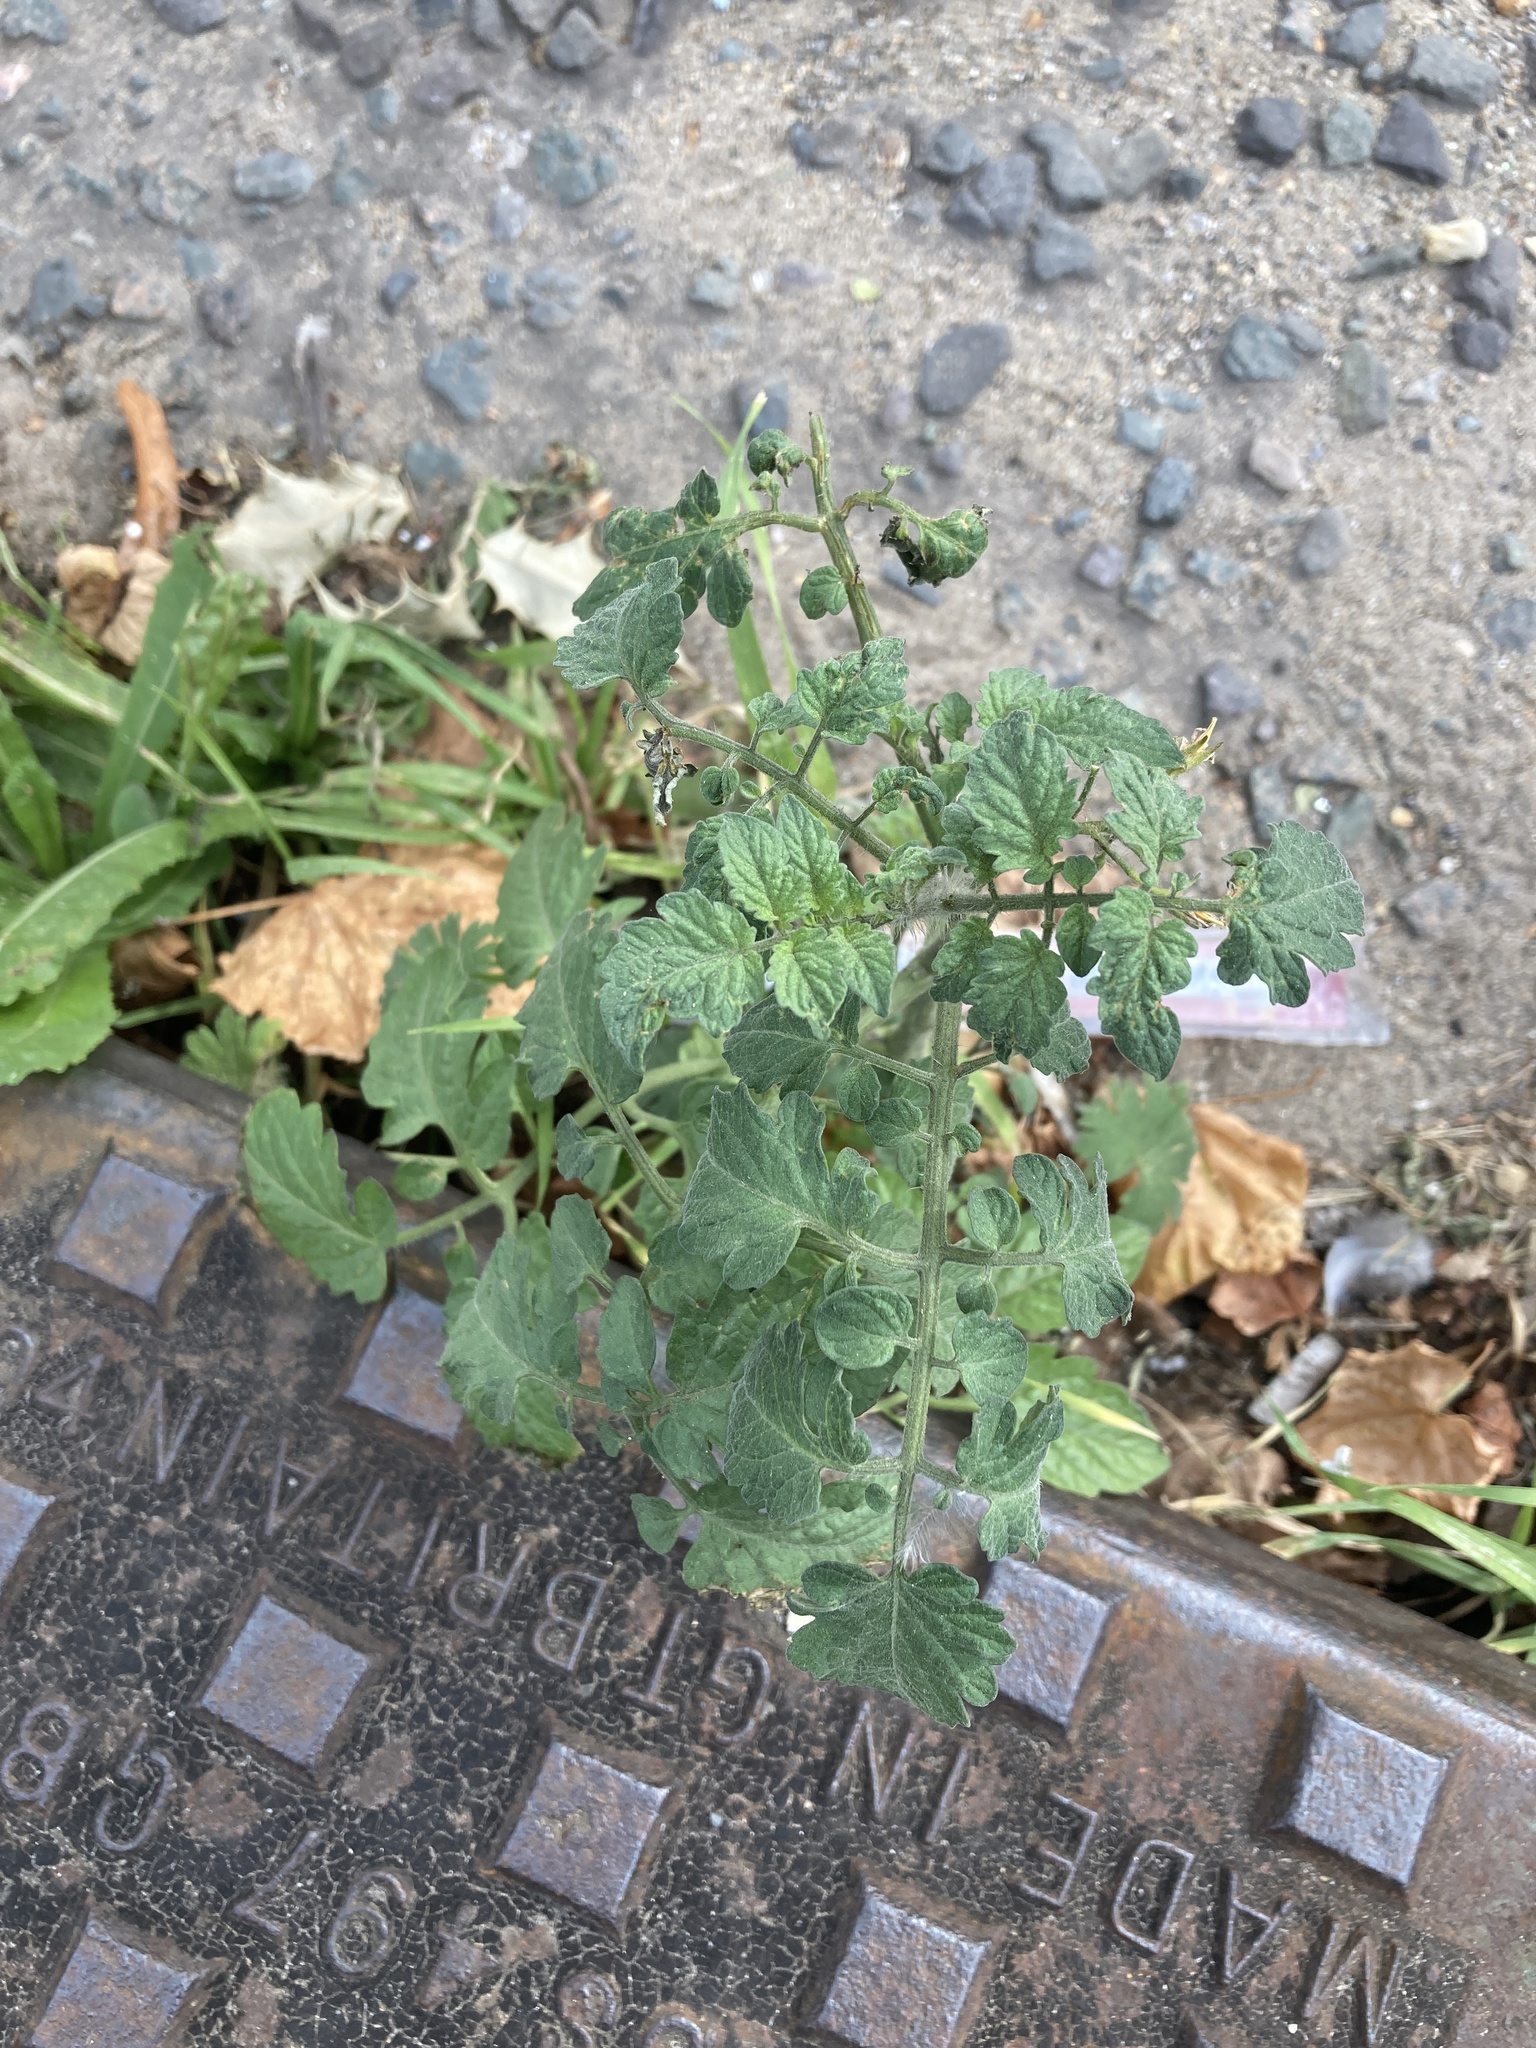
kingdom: Plantae
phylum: Tracheophyta
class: Magnoliopsida
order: Solanales
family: Solanaceae
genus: Solanum
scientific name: Solanum lycopersicum
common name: Garden tomato
